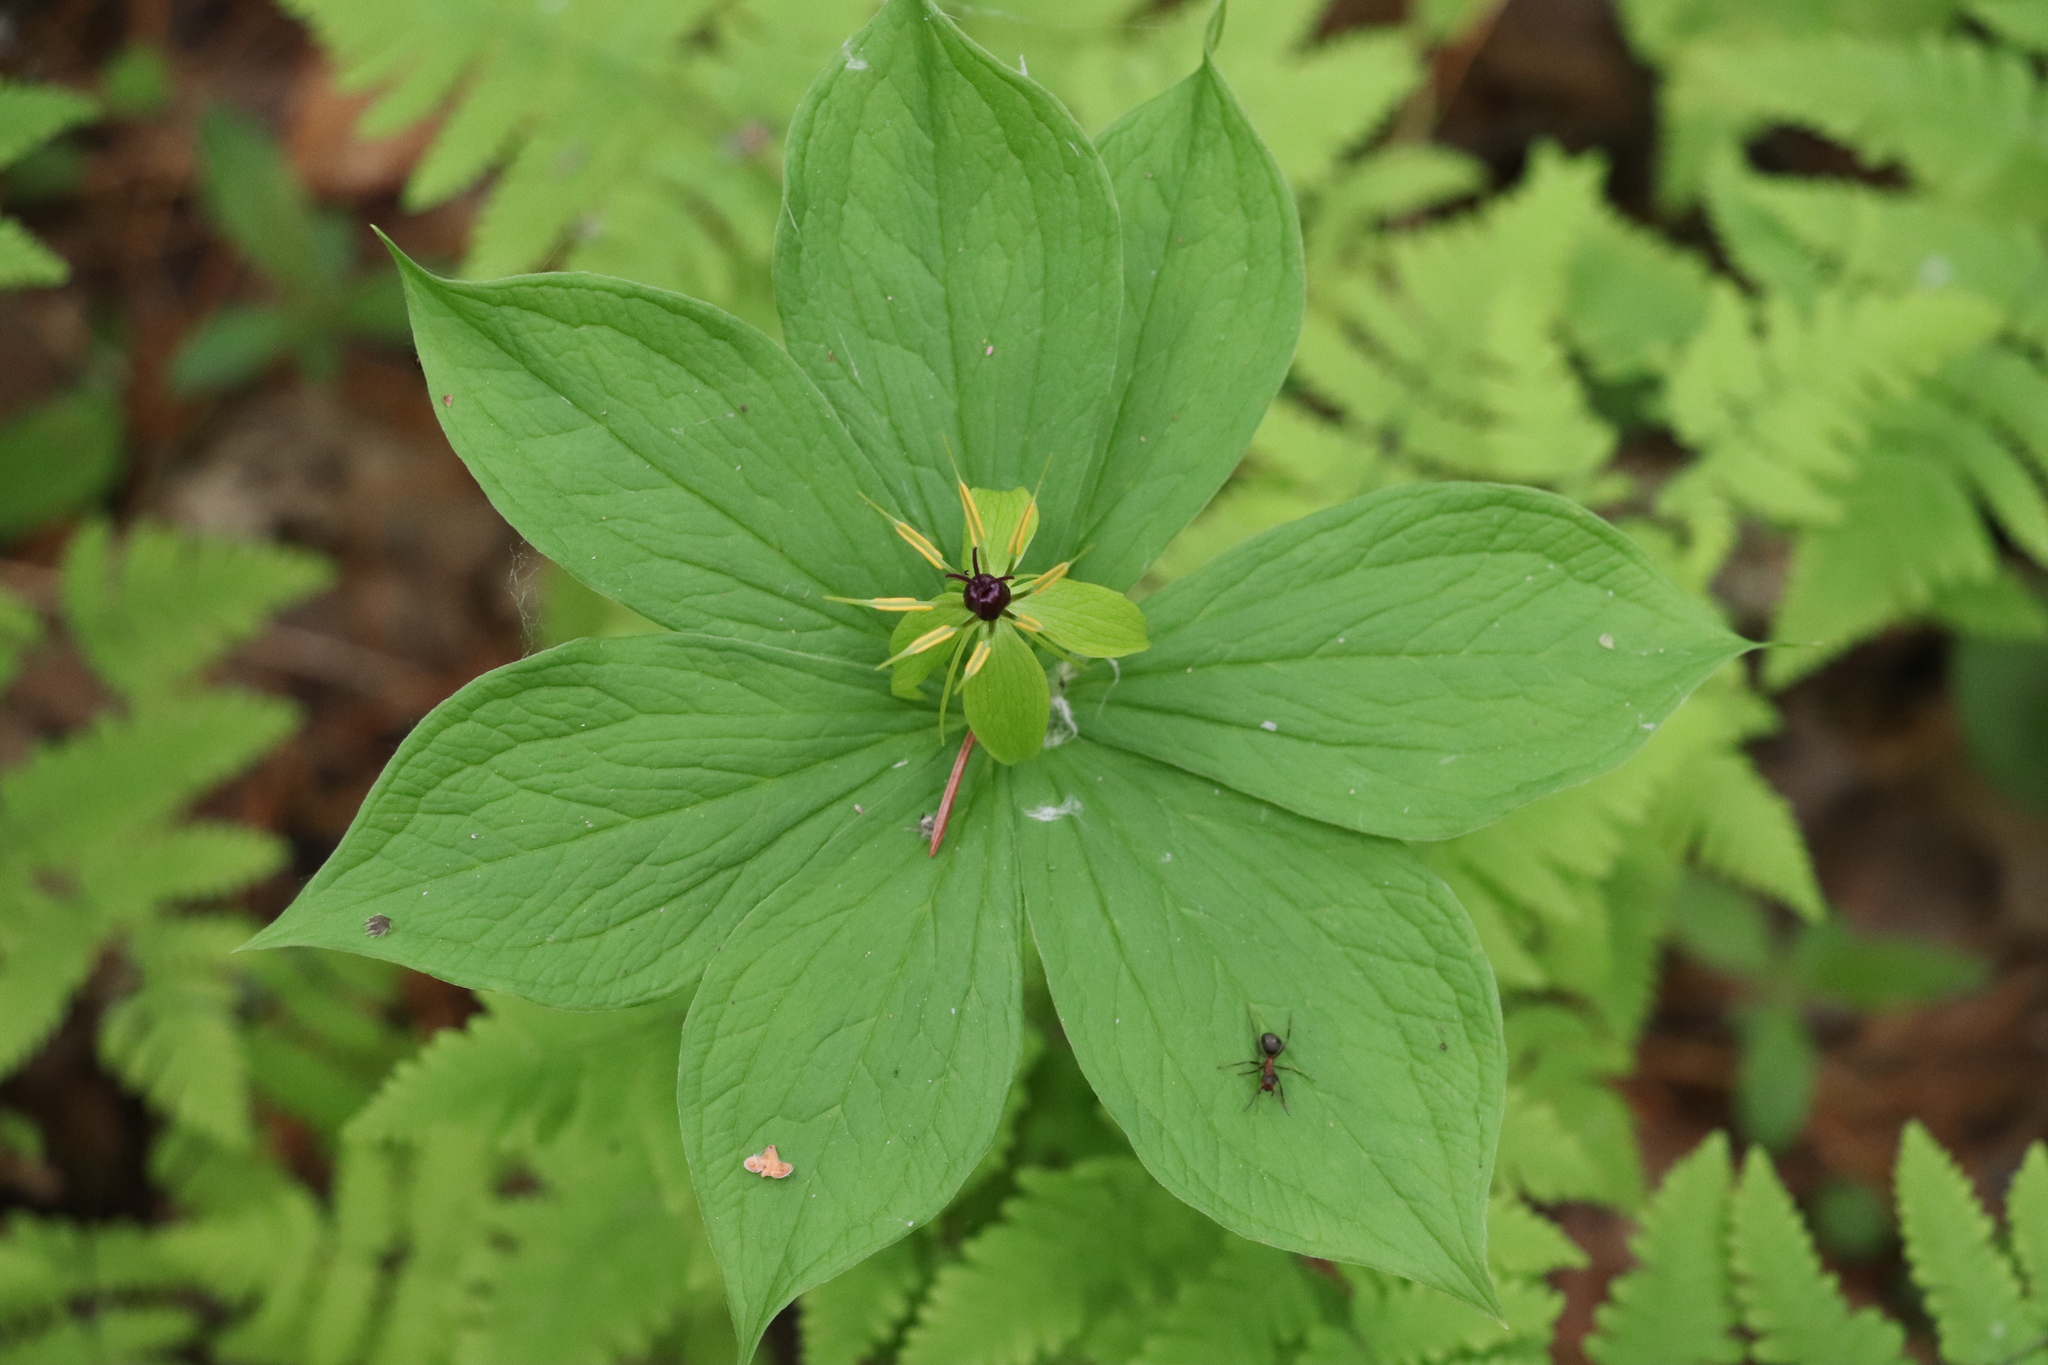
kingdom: Plantae
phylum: Tracheophyta
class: Liliopsida
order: Liliales
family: Melanthiaceae
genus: Paris
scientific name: Paris quadrifolia
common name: Herb-paris
